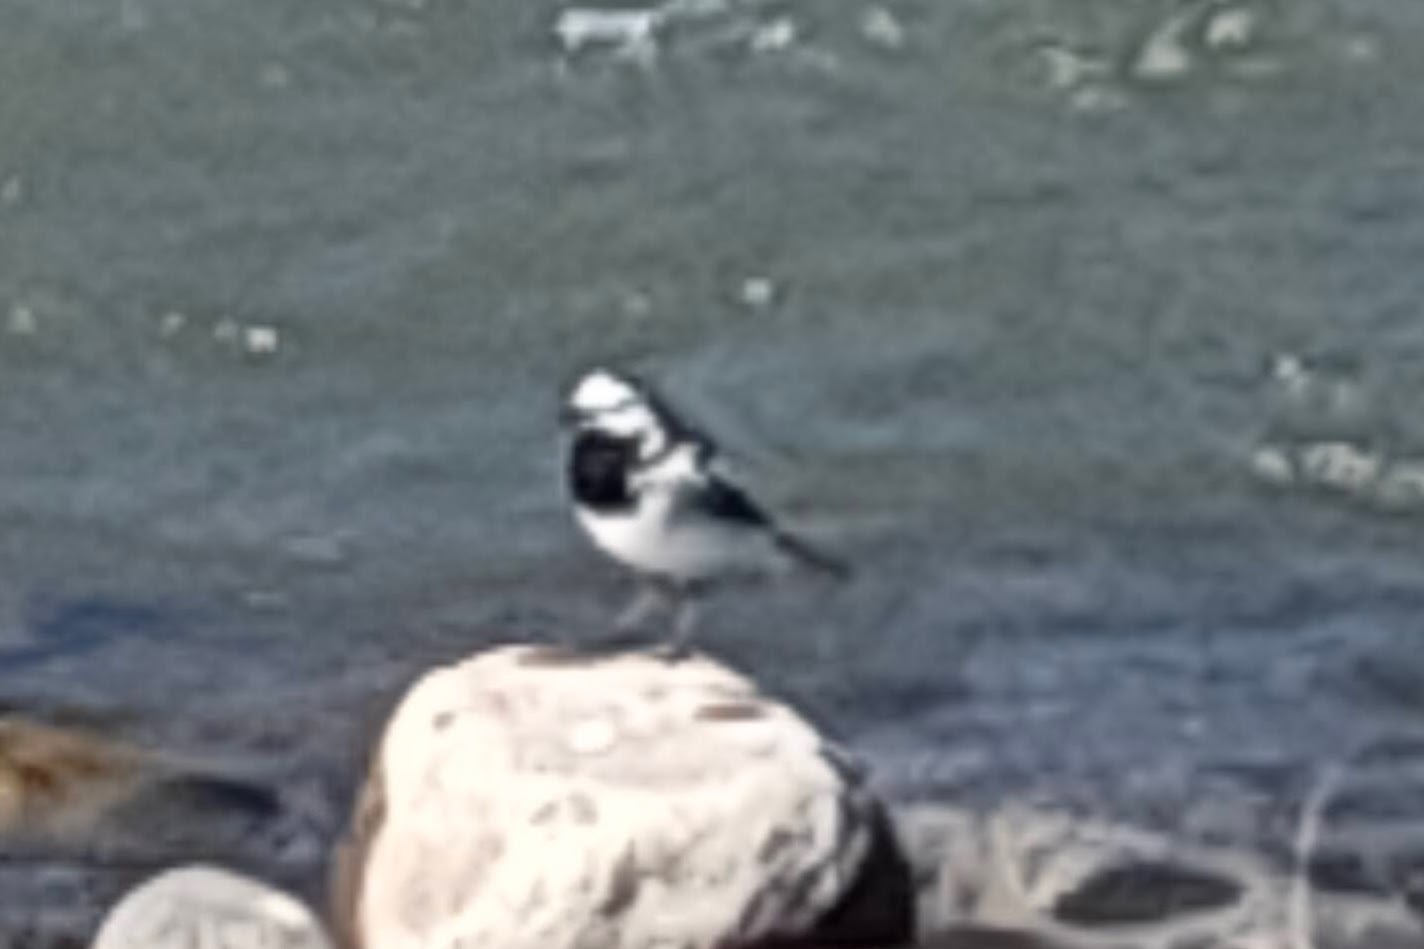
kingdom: Animalia
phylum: Chordata
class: Aves
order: Passeriformes
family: Motacillidae
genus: Motacilla
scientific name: Motacilla alba
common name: White wagtail
